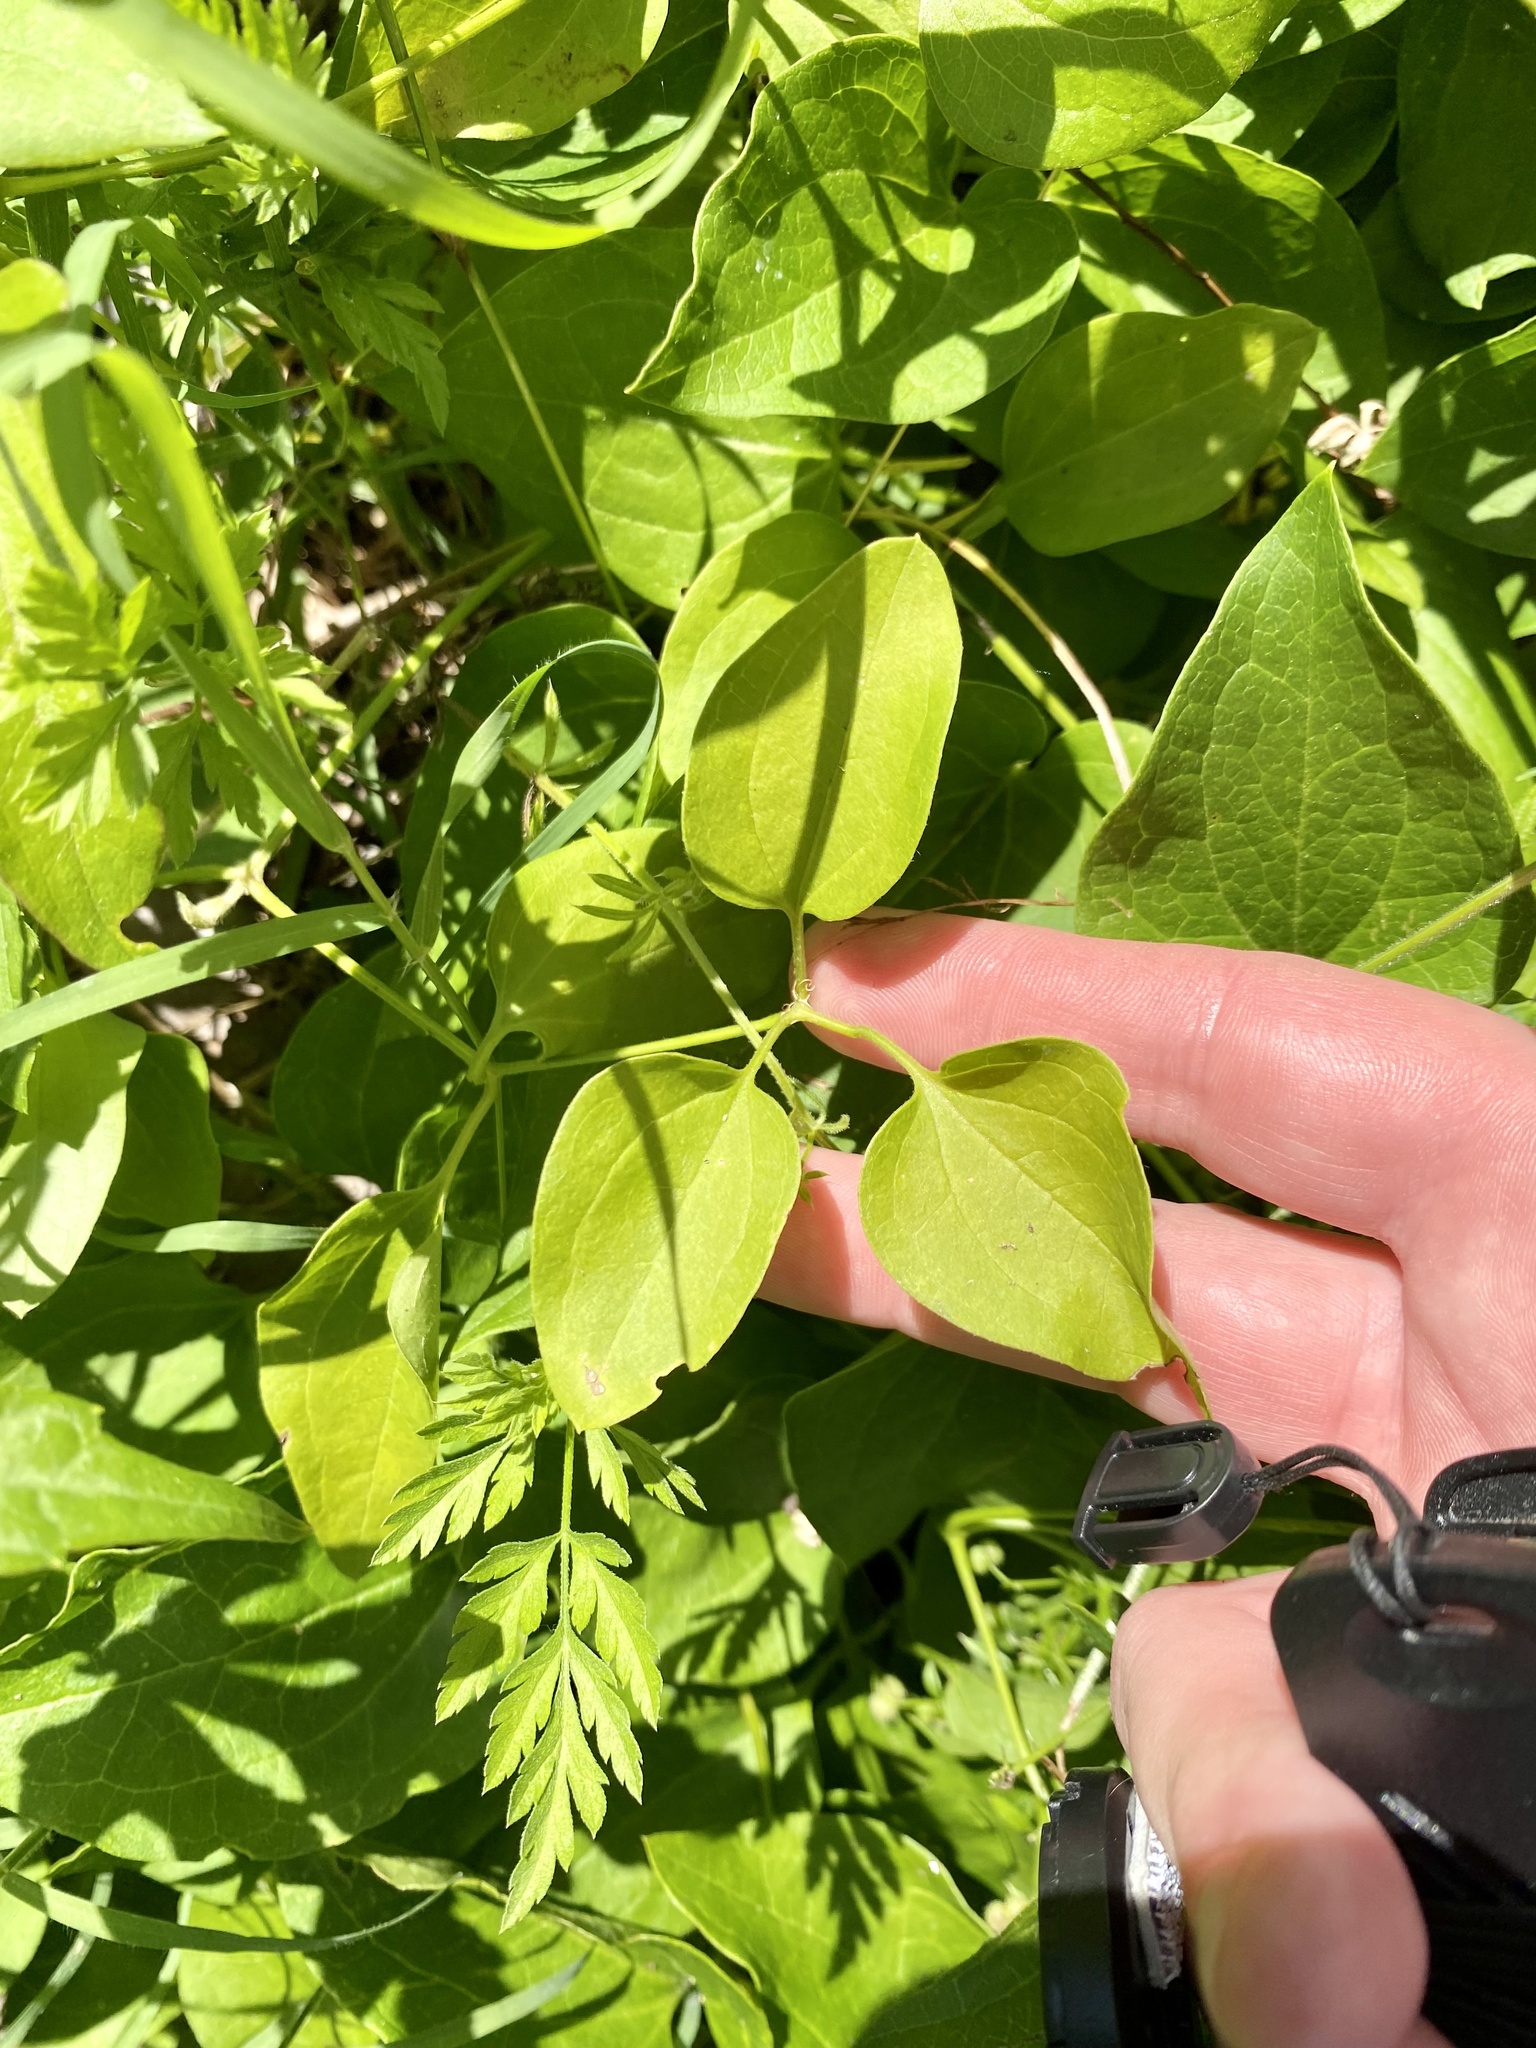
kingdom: Plantae
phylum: Tracheophyta
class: Magnoliopsida
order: Ranunculales
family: Ranunculaceae
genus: Clematis
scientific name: Clematis terniflora
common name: Sweet autumn clematis
